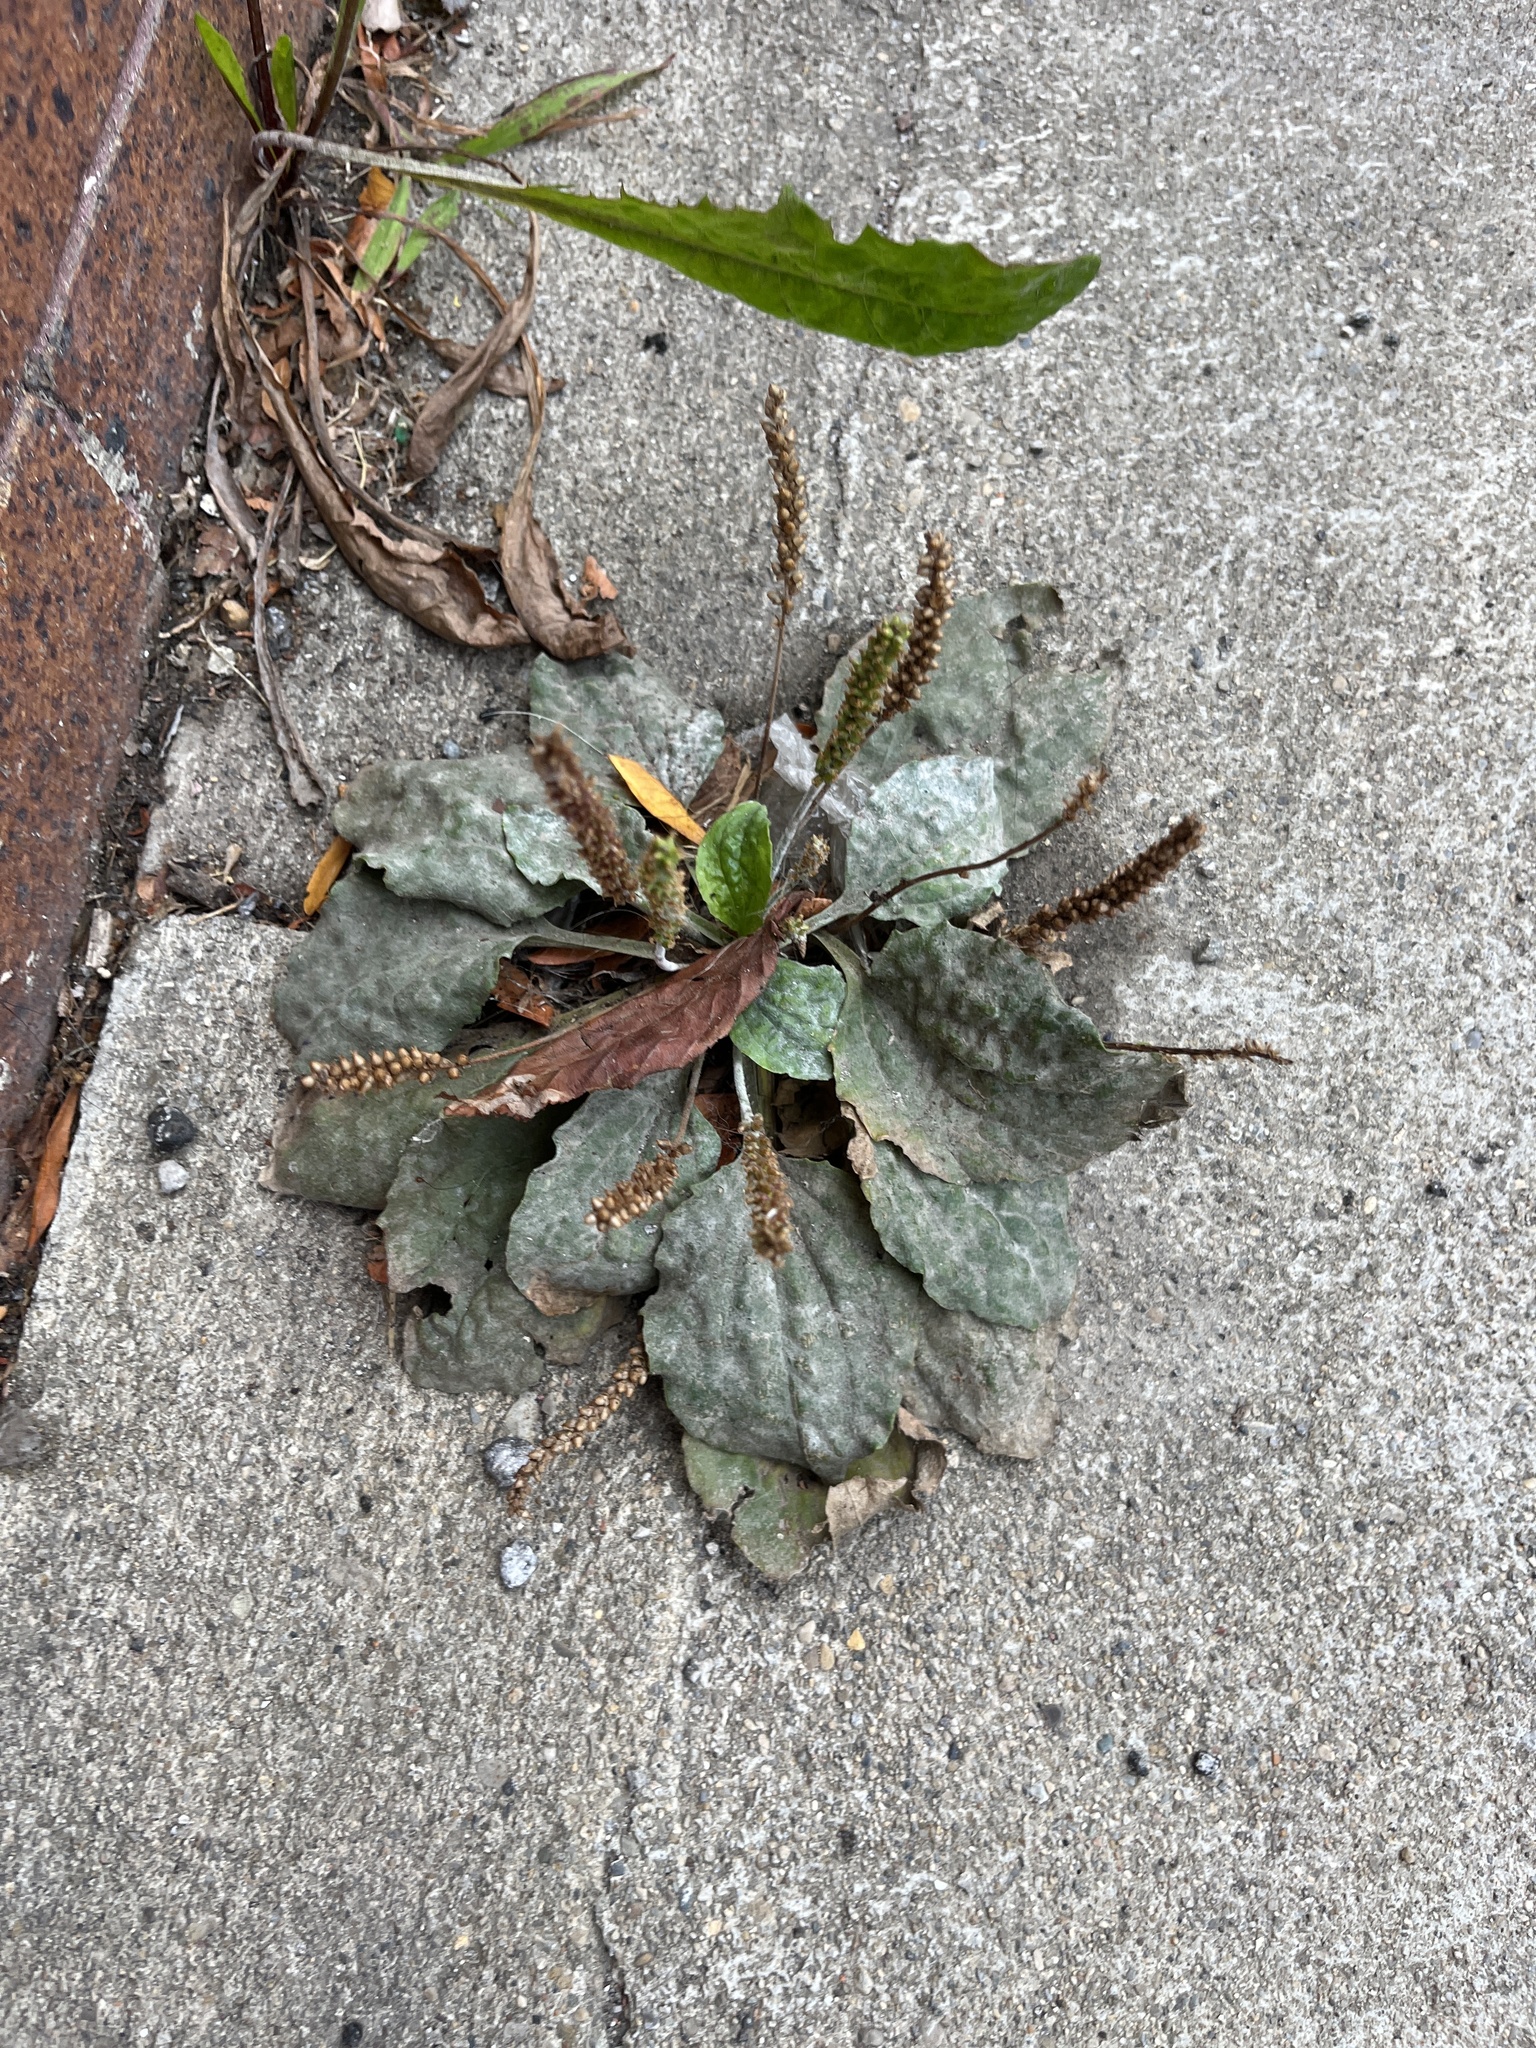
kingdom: Plantae
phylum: Tracheophyta
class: Magnoliopsida
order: Lamiales
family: Plantaginaceae
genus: Plantago
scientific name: Plantago major
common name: Common plantain
